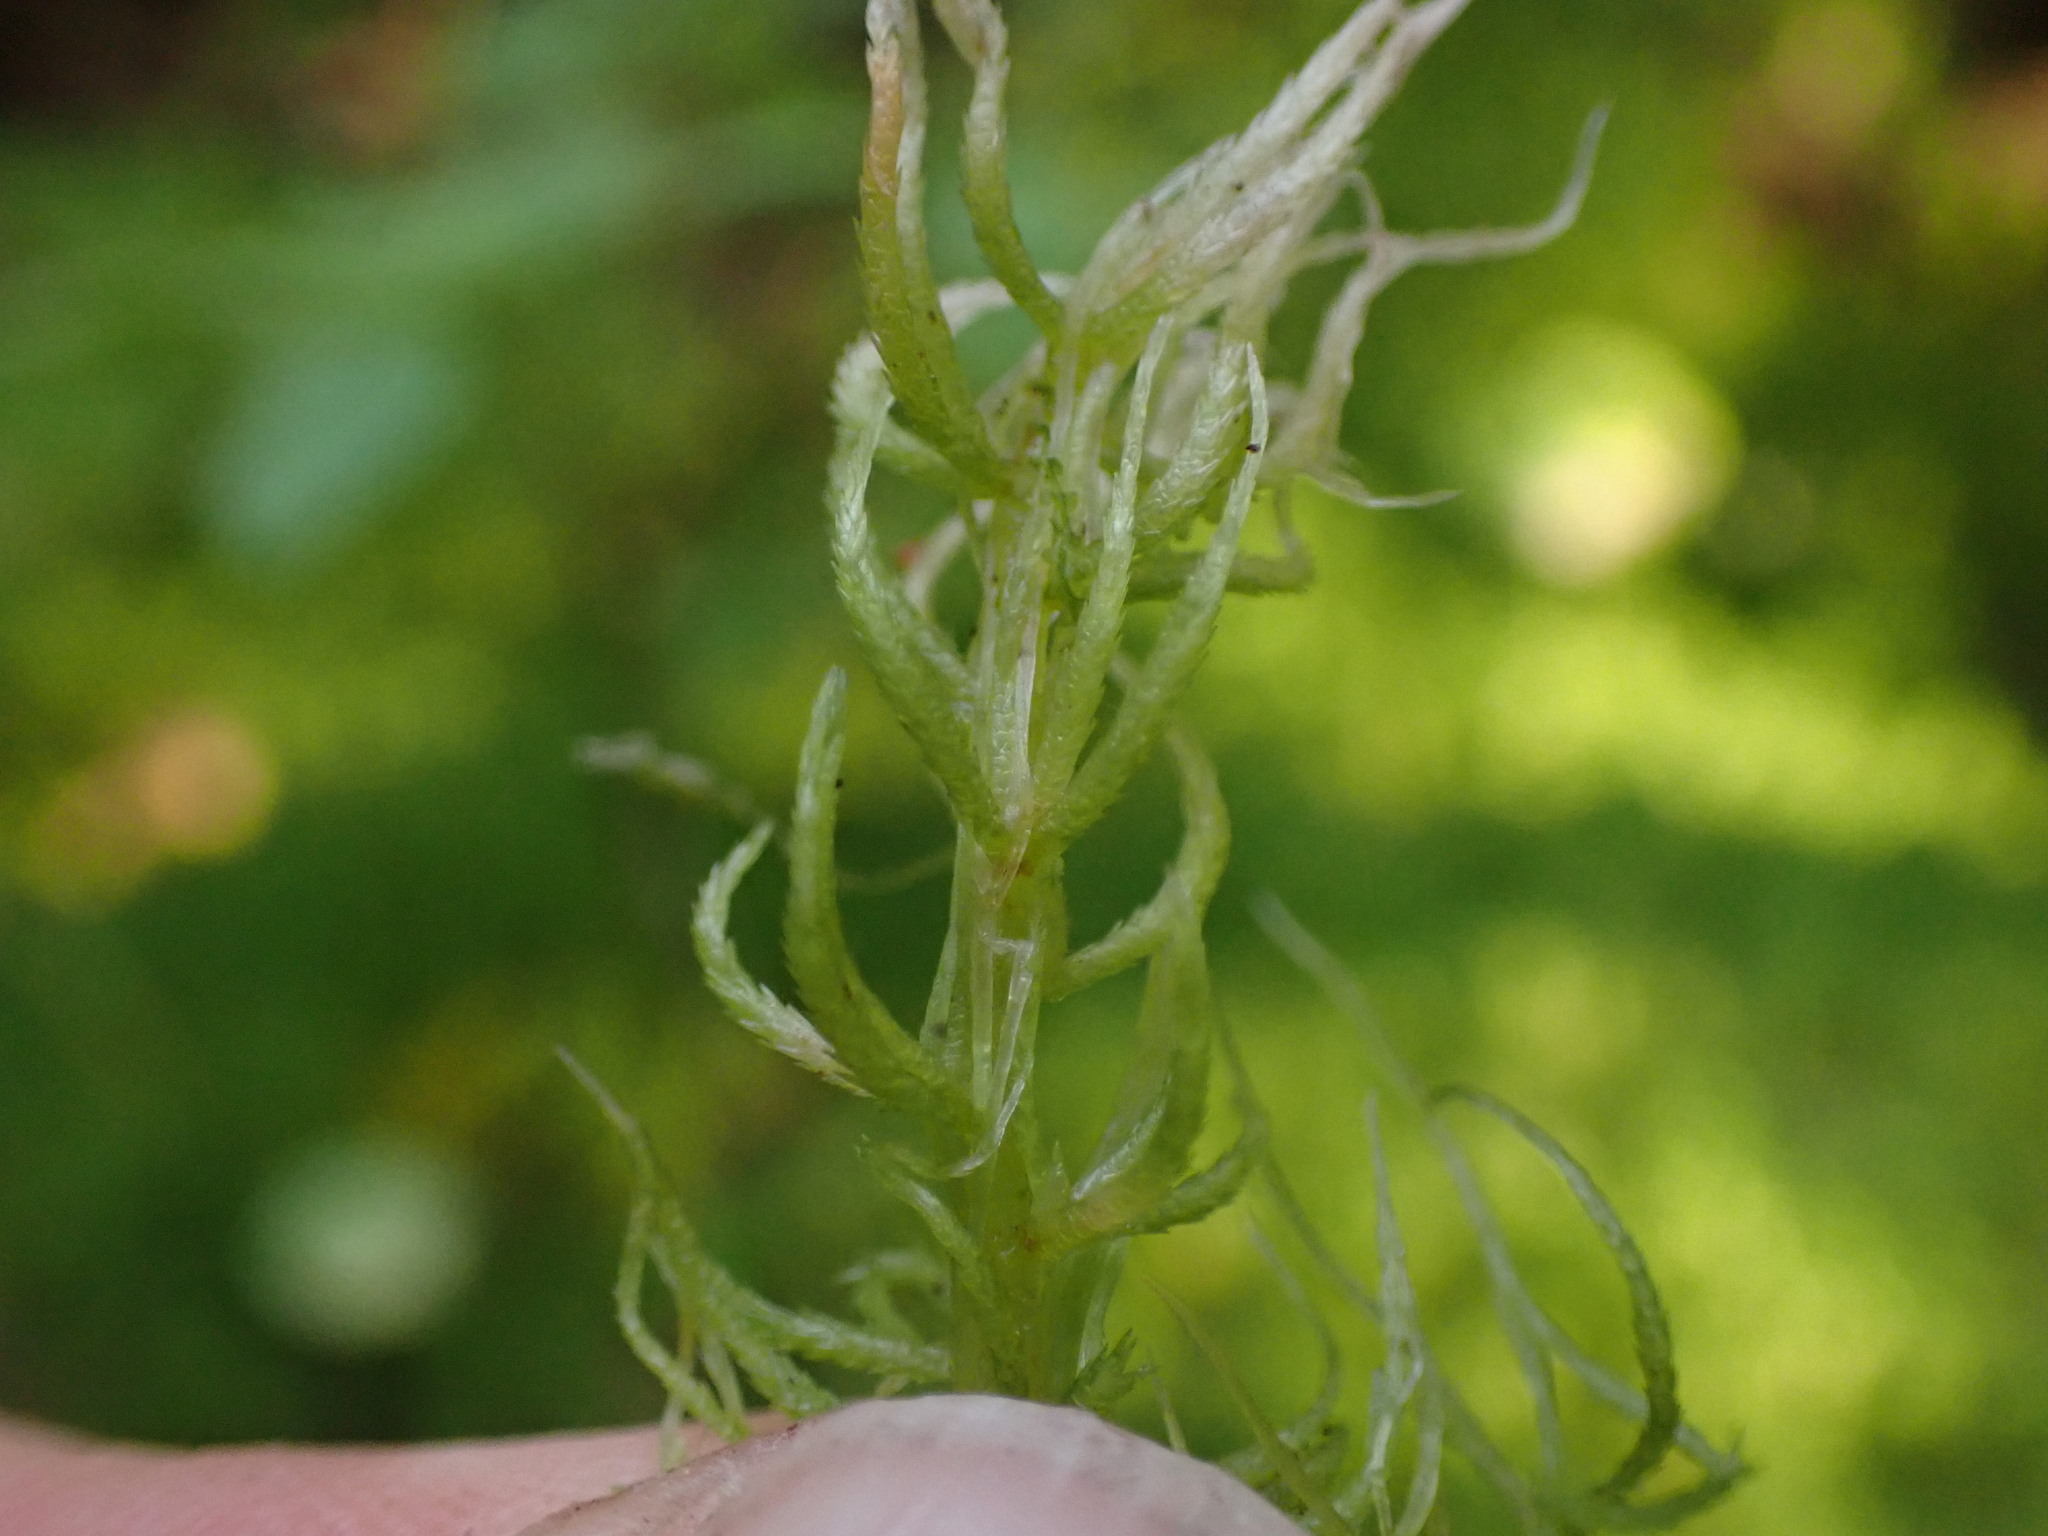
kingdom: Plantae
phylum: Bryophyta
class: Sphagnopsida
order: Sphagnales
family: Sphagnaceae
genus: Sphagnum
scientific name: Sphagnum rubiginosum
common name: Variegated peat moss
